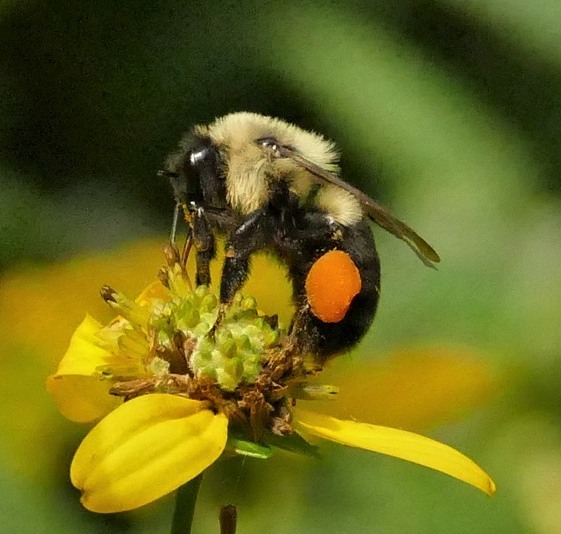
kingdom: Animalia
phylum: Arthropoda
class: Insecta
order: Hymenoptera
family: Apidae
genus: Bombus
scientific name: Bombus impatiens
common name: Common eastern bumble bee
